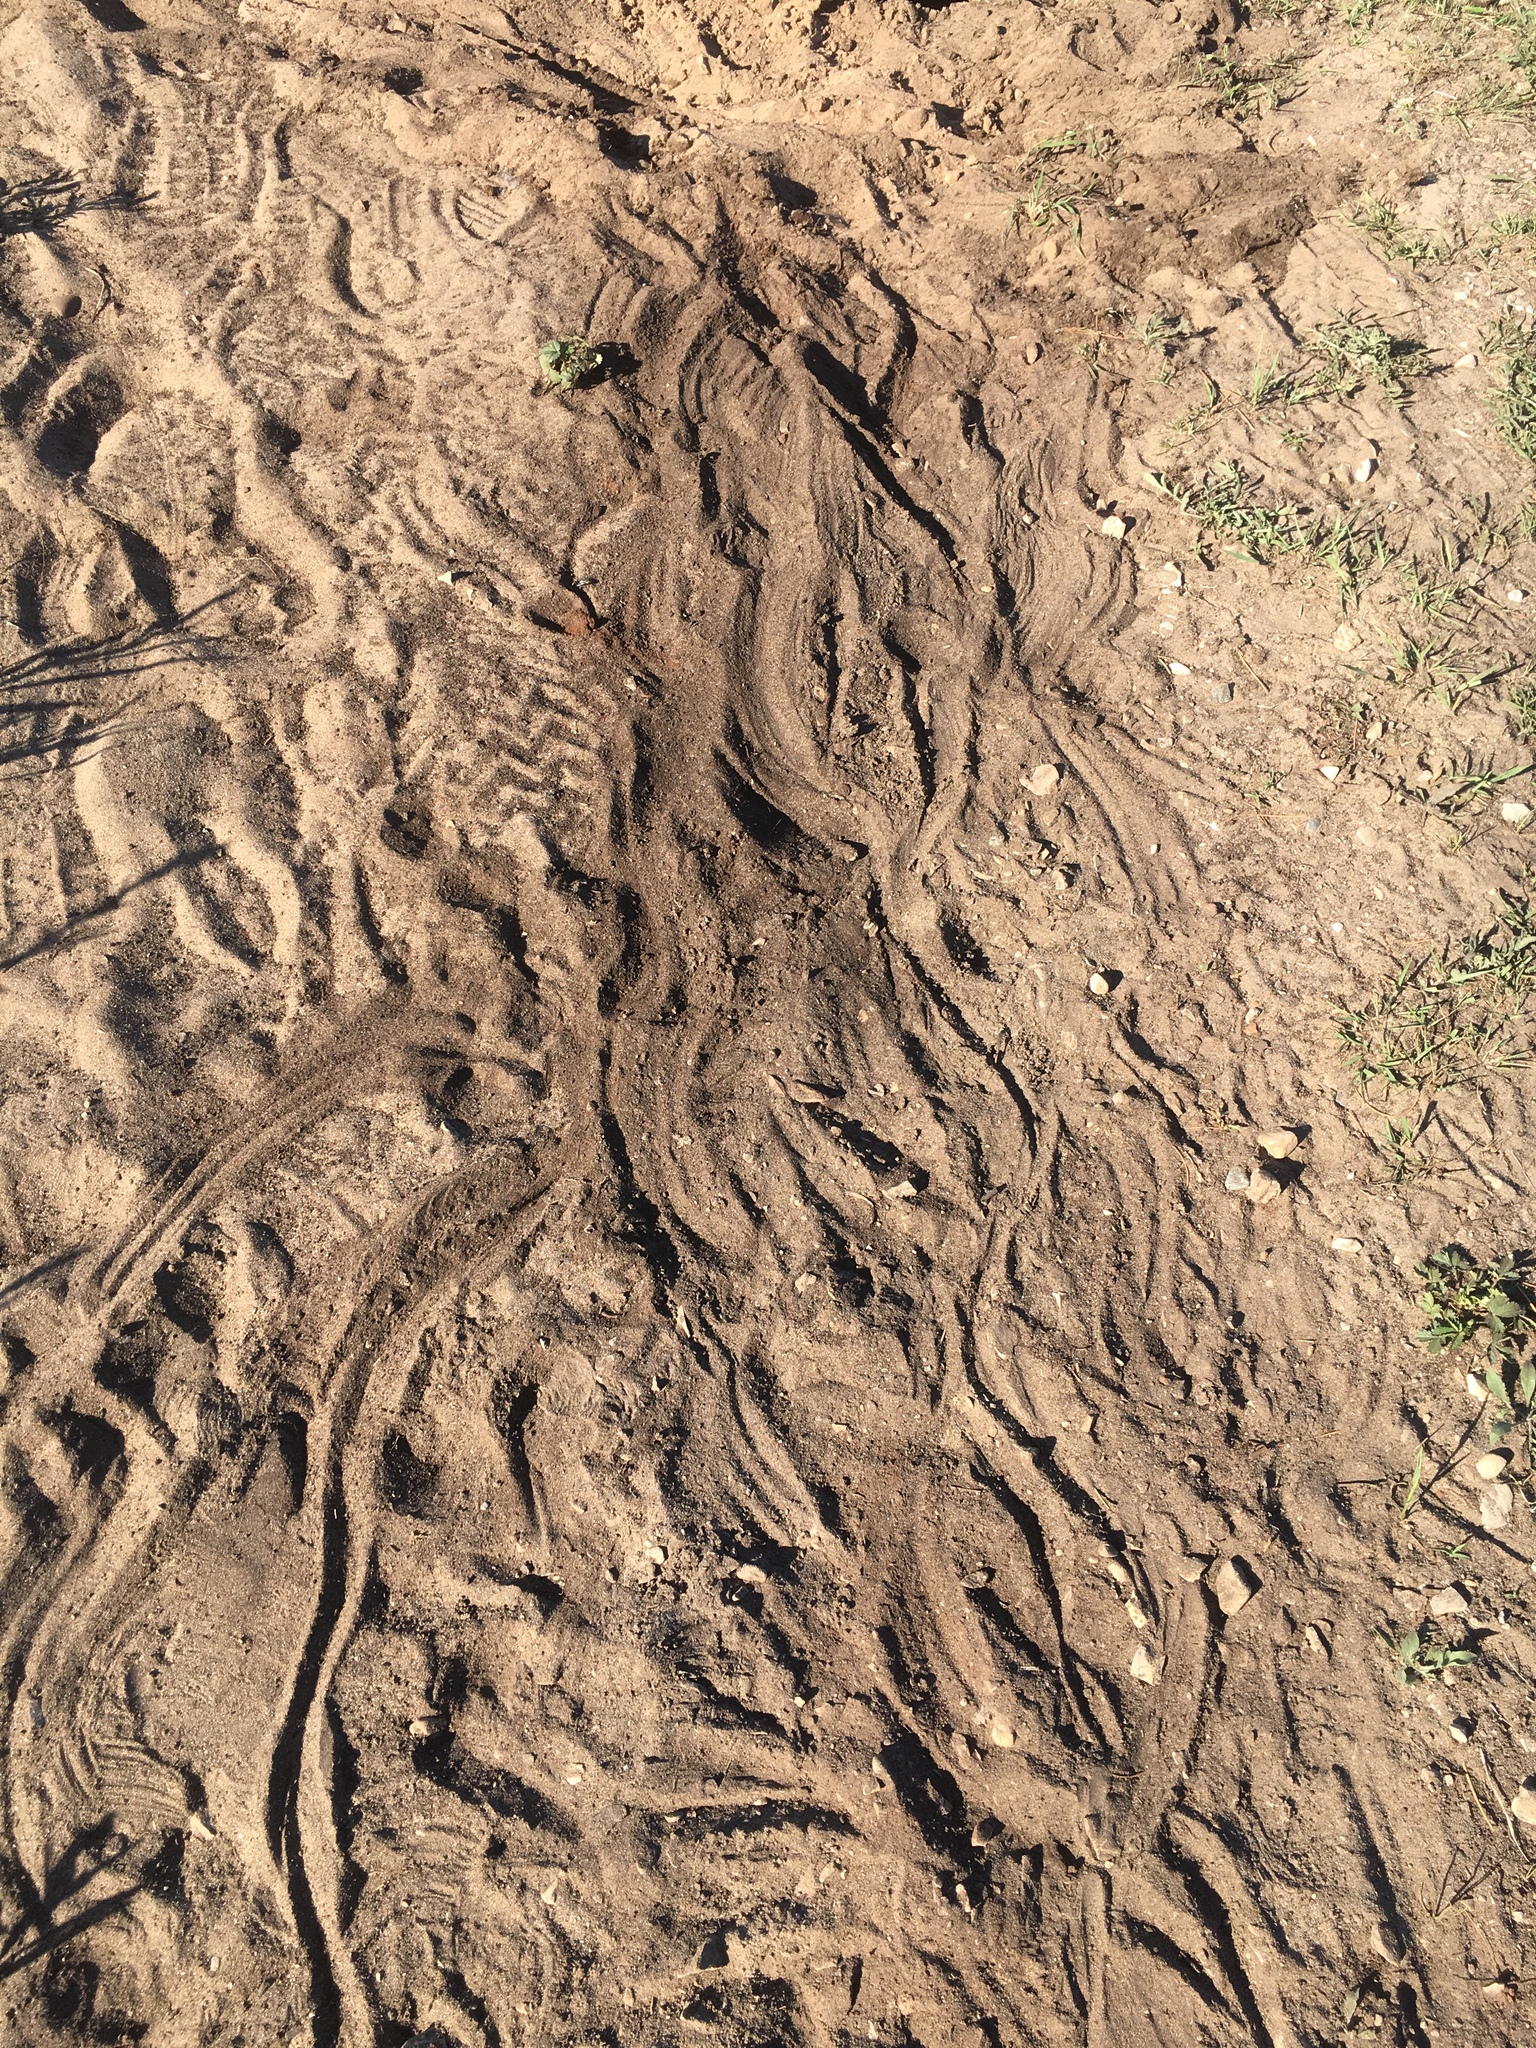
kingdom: Animalia
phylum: Chordata
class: Testudines
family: Chelydridae
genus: Chelydra
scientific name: Chelydra serpentina
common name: Common snapping turtle
